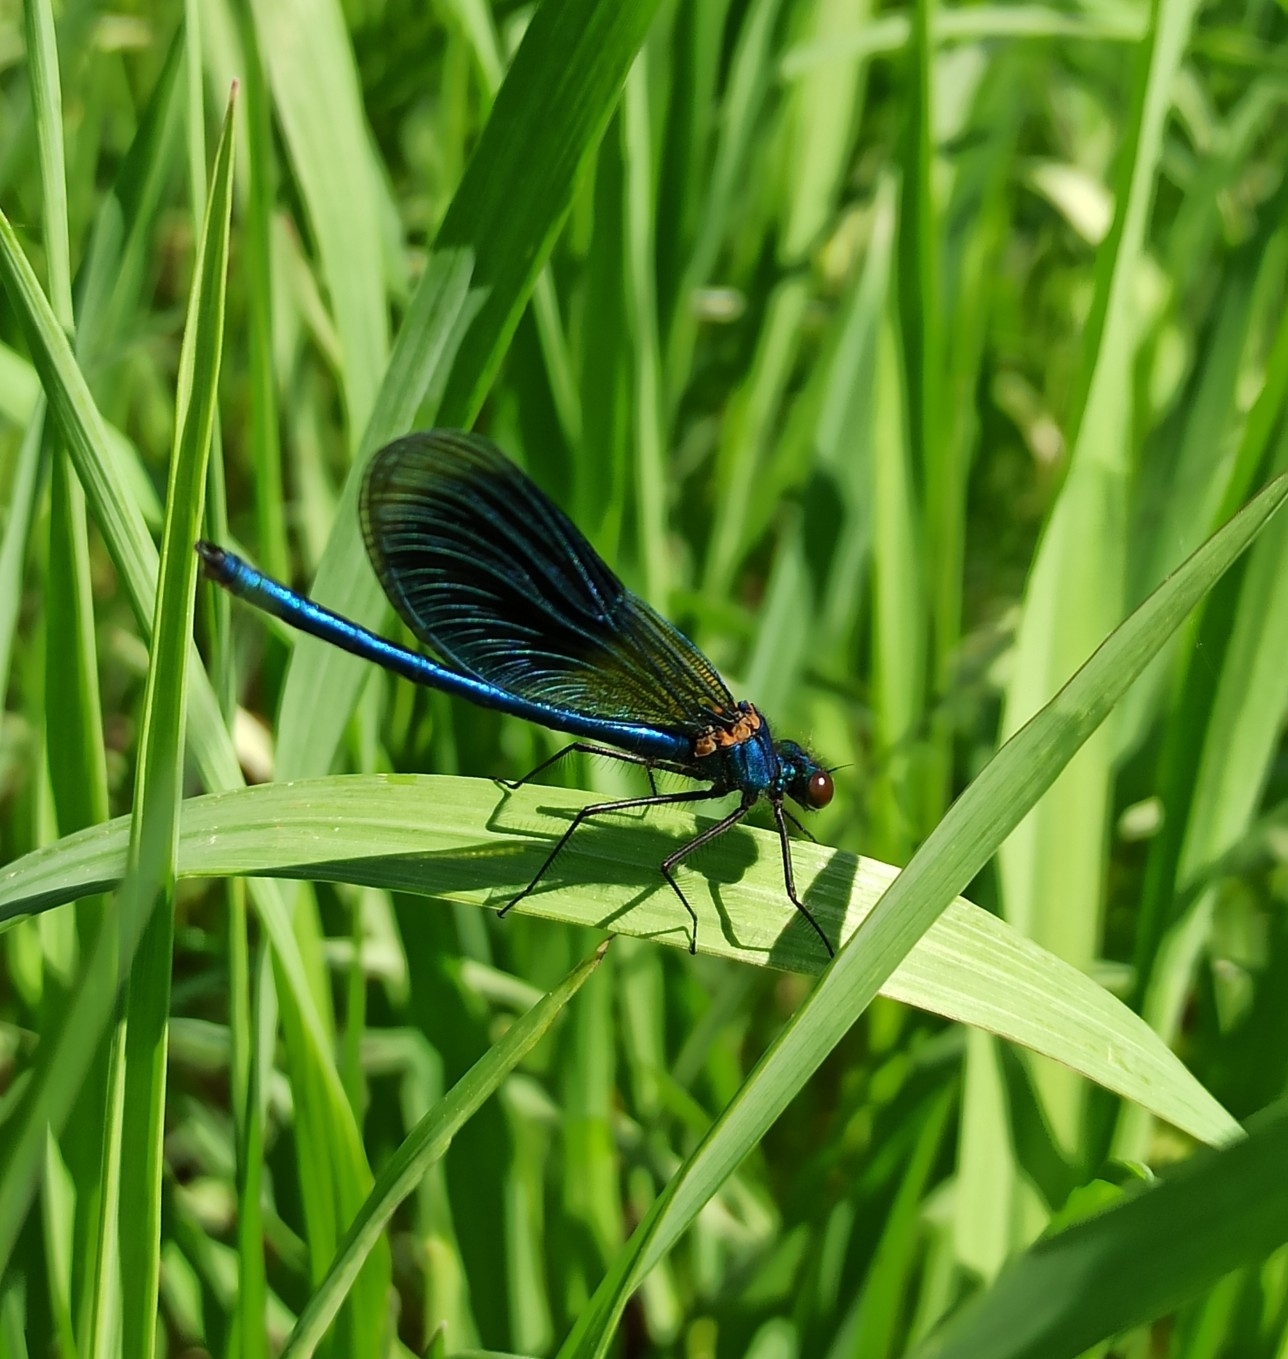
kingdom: Animalia
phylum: Arthropoda
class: Insecta
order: Odonata
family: Calopterygidae
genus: Calopteryx
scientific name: Calopteryx splendens
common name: Banded demoiselle
